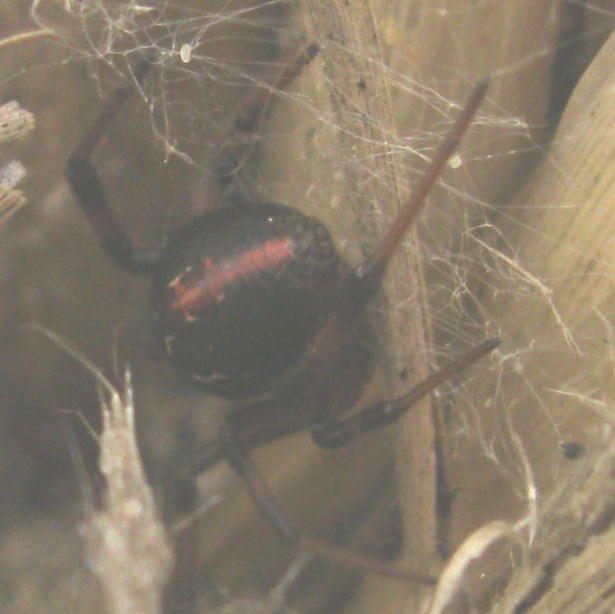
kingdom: Animalia
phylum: Arthropoda
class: Arachnida
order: Araneae
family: Theridiidae
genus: Latrodectus
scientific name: Latrodectus katipo
